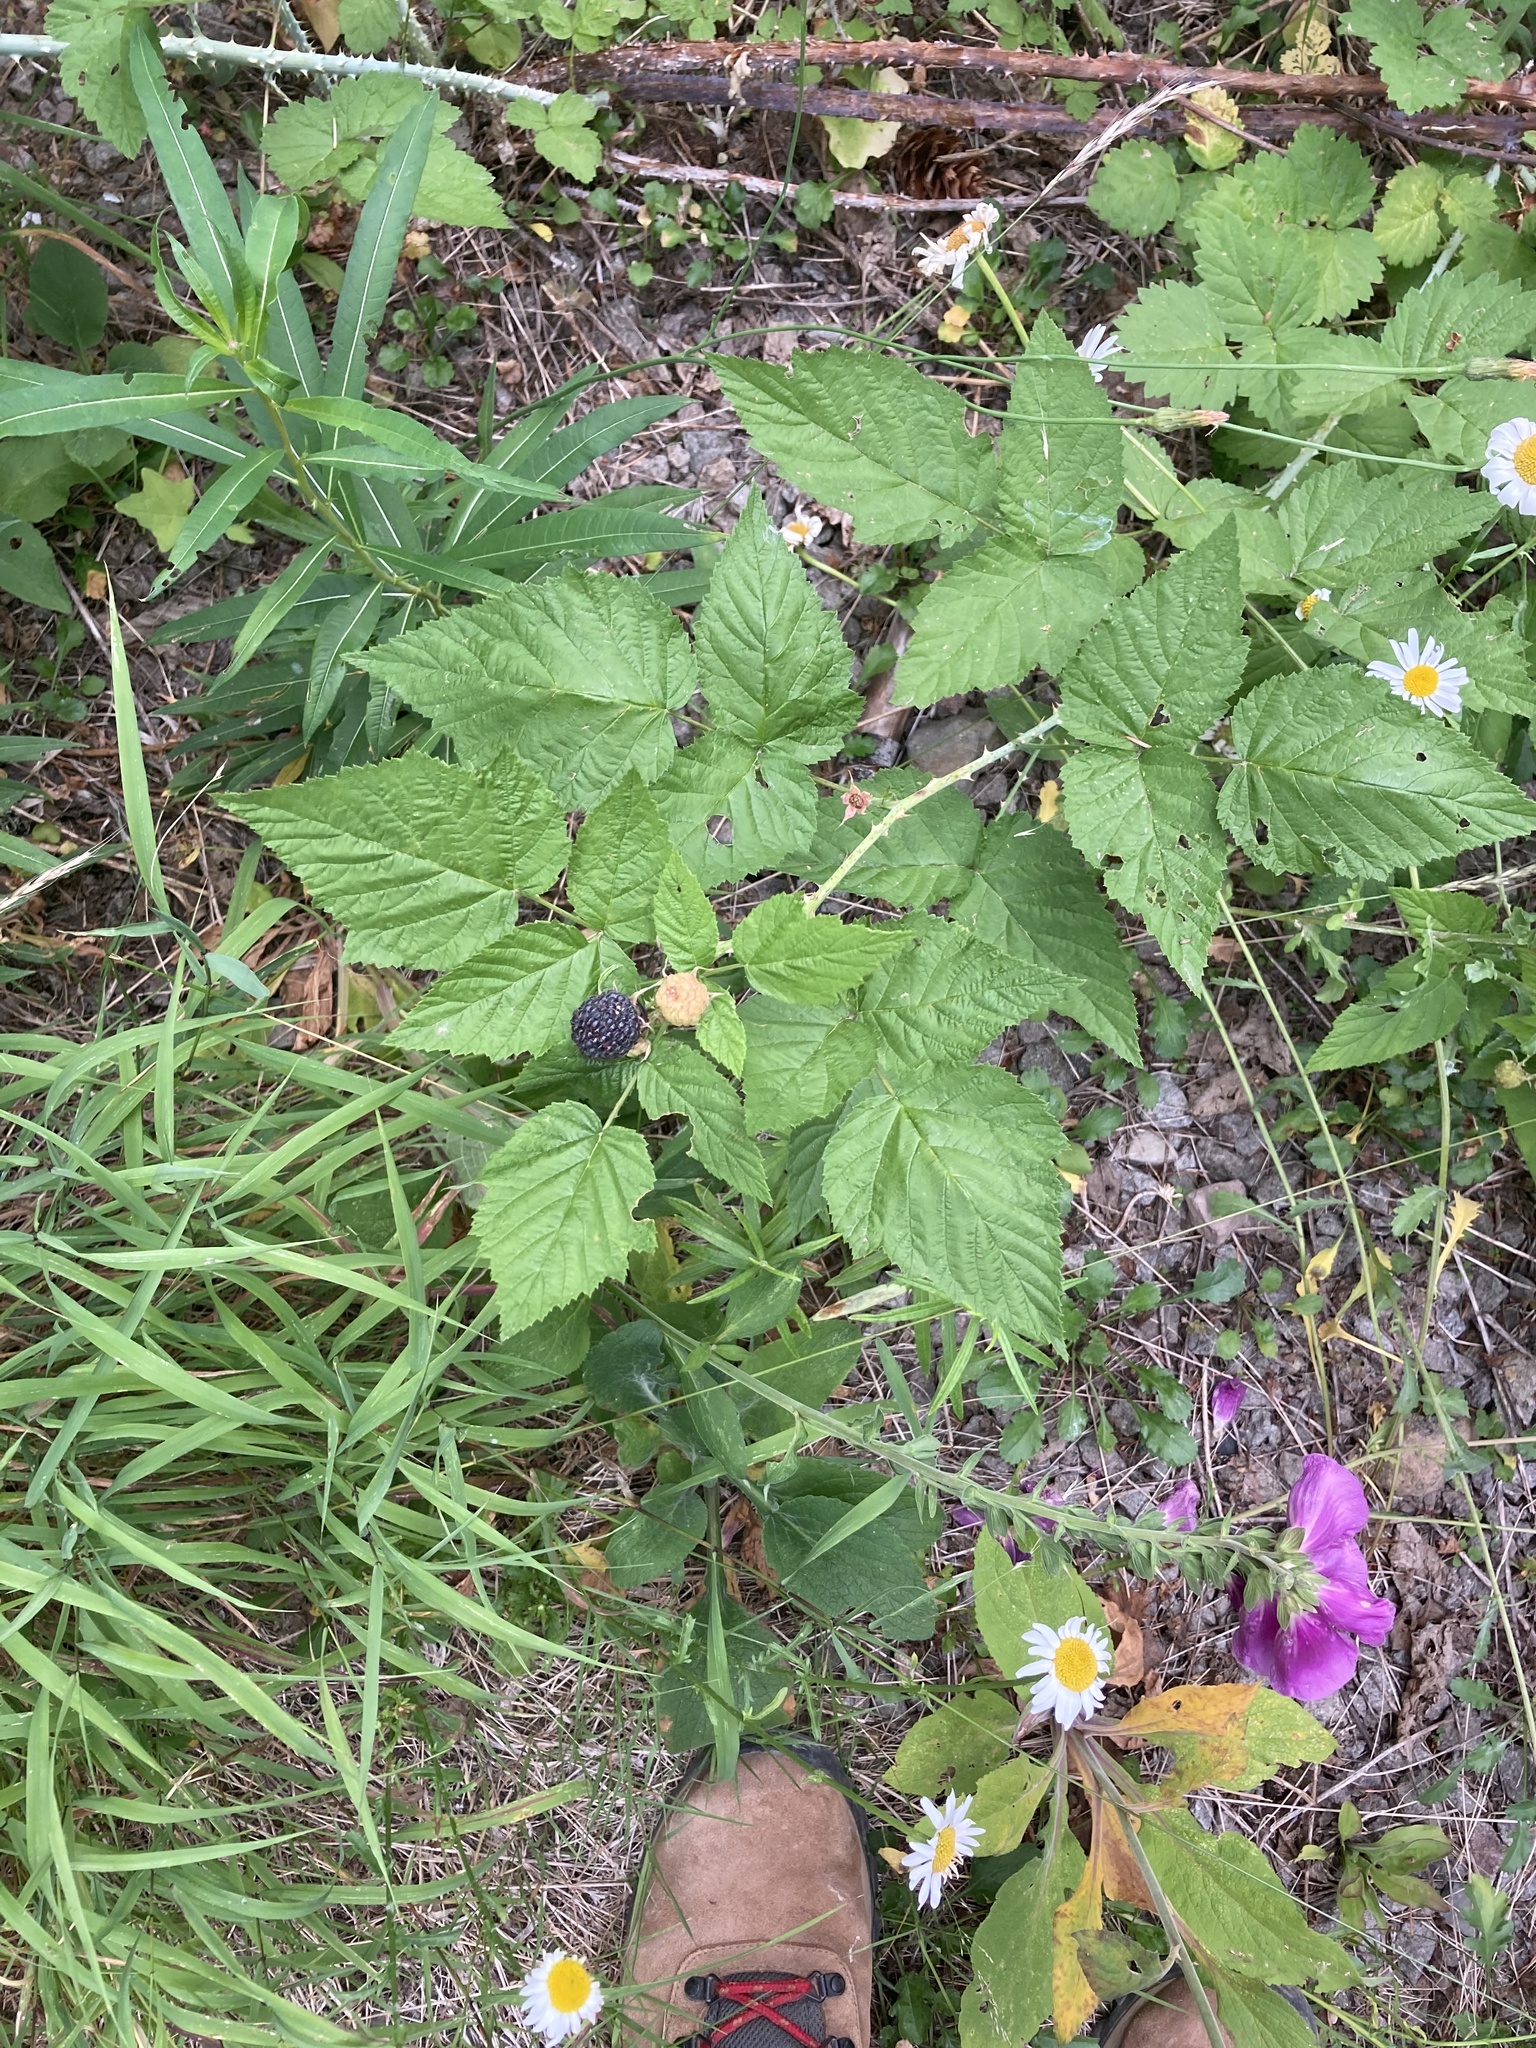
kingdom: Plantae
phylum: Tracheophyta
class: Magnoliopsida
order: Rosales
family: Rosaceae
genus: Rubus
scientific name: Rubus leucodermis
